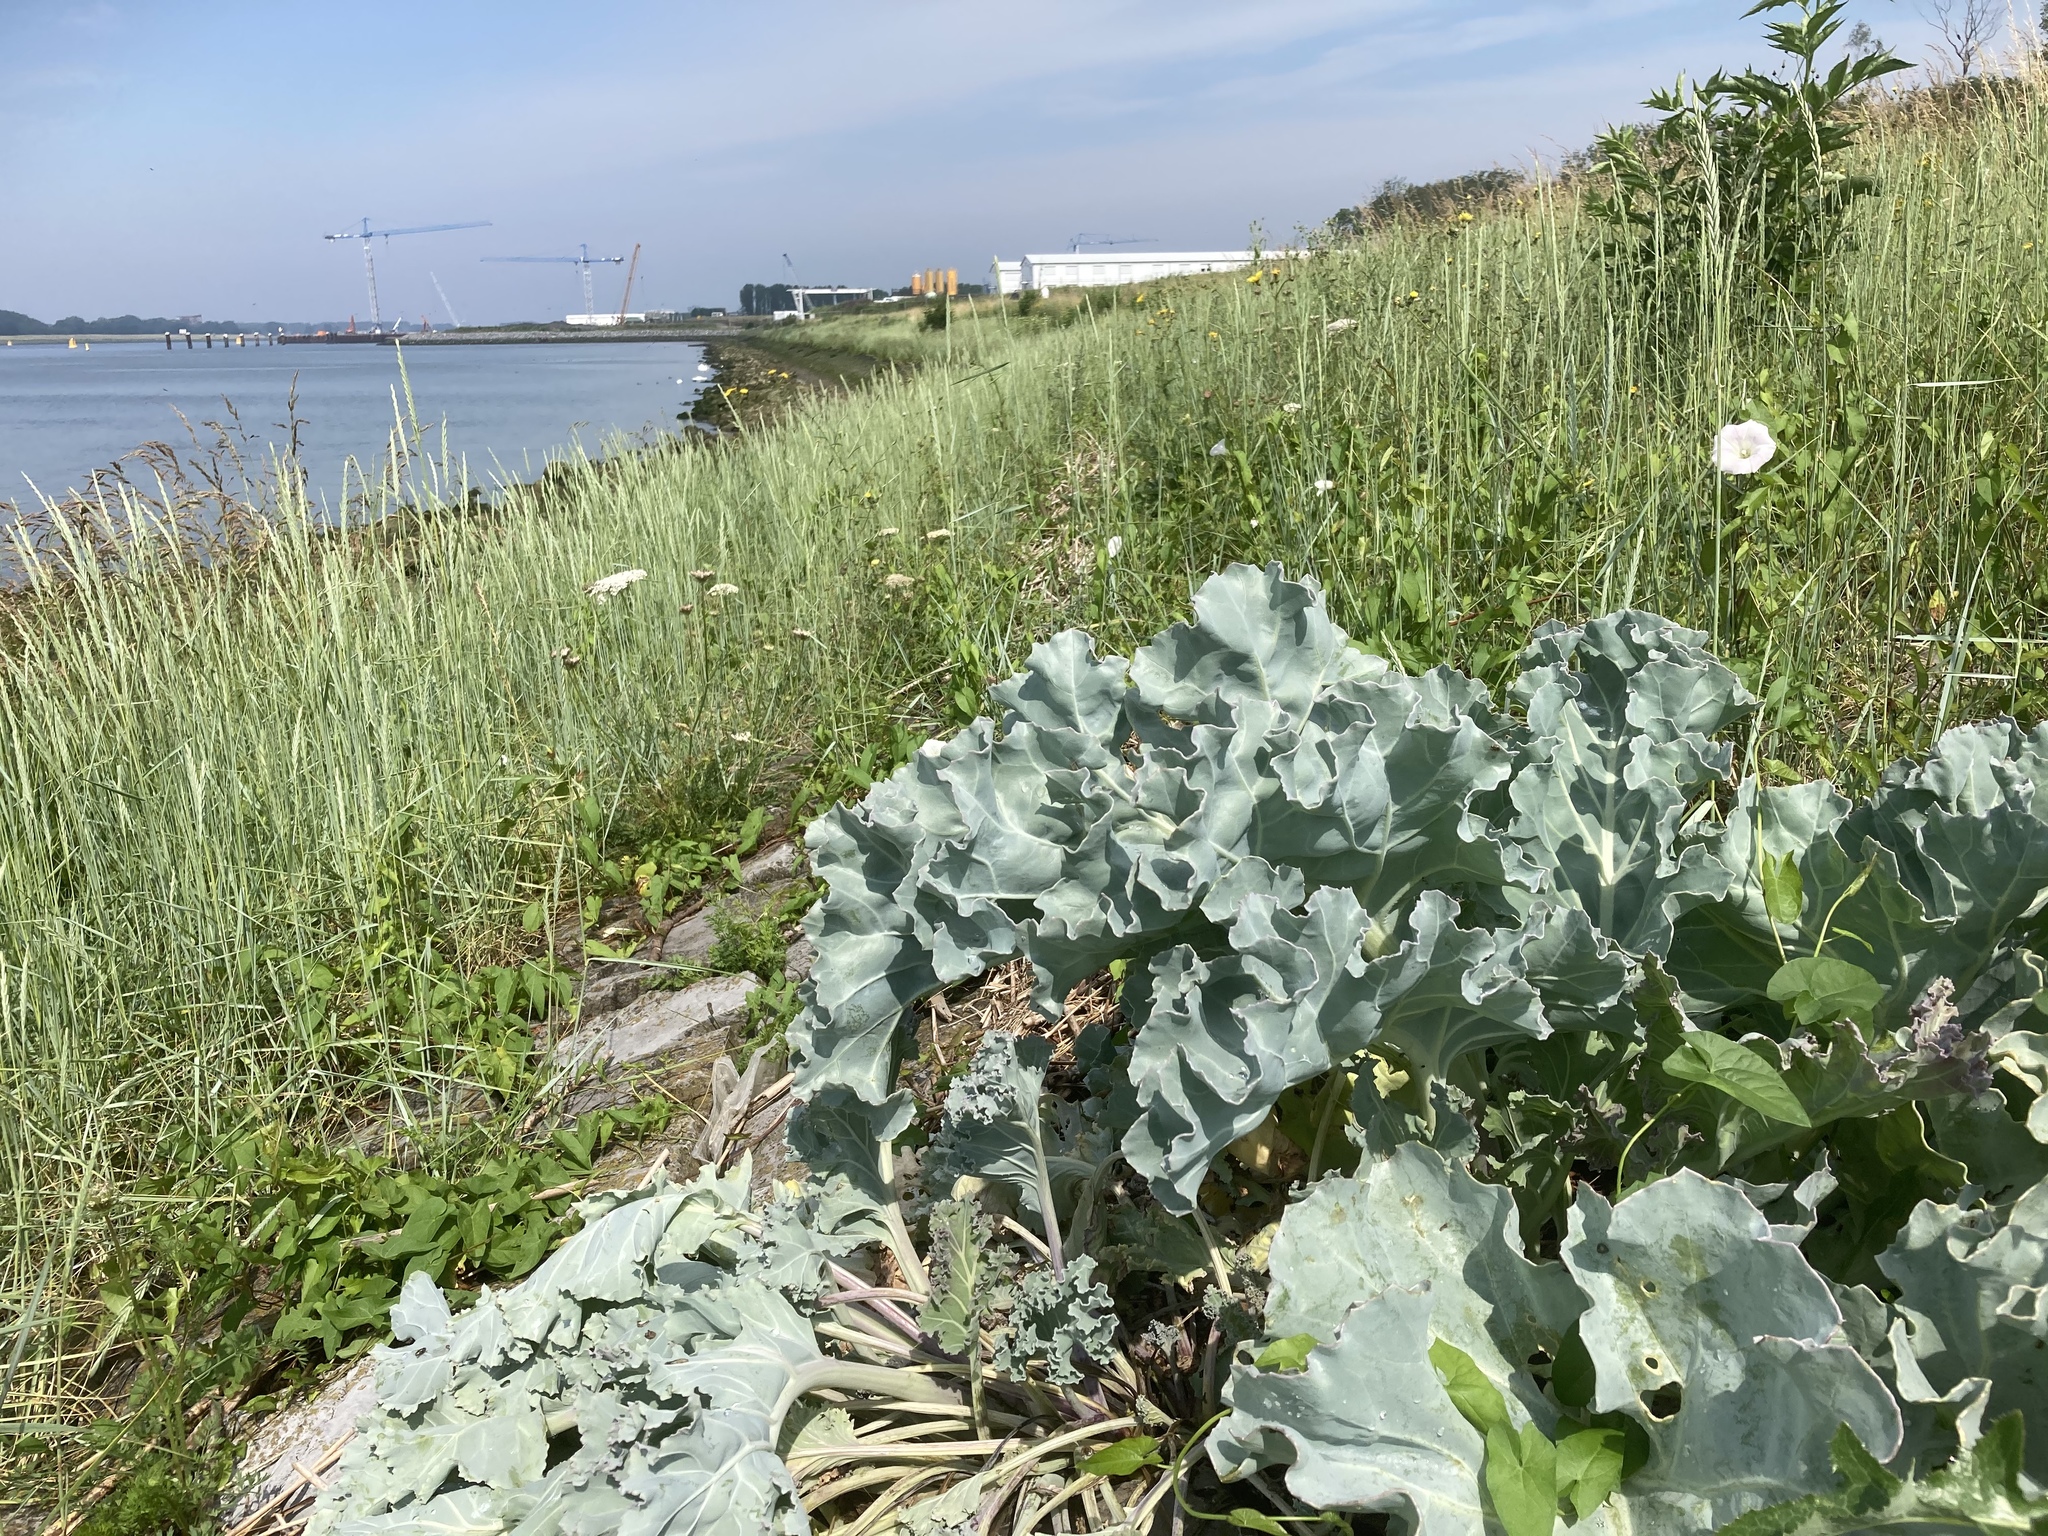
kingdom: Plantae
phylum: Tracheophyta
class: Magnoliopsida
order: Brassicales
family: Brassicaceae
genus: Crambe
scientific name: Crambe maritima
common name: Sea-kale
